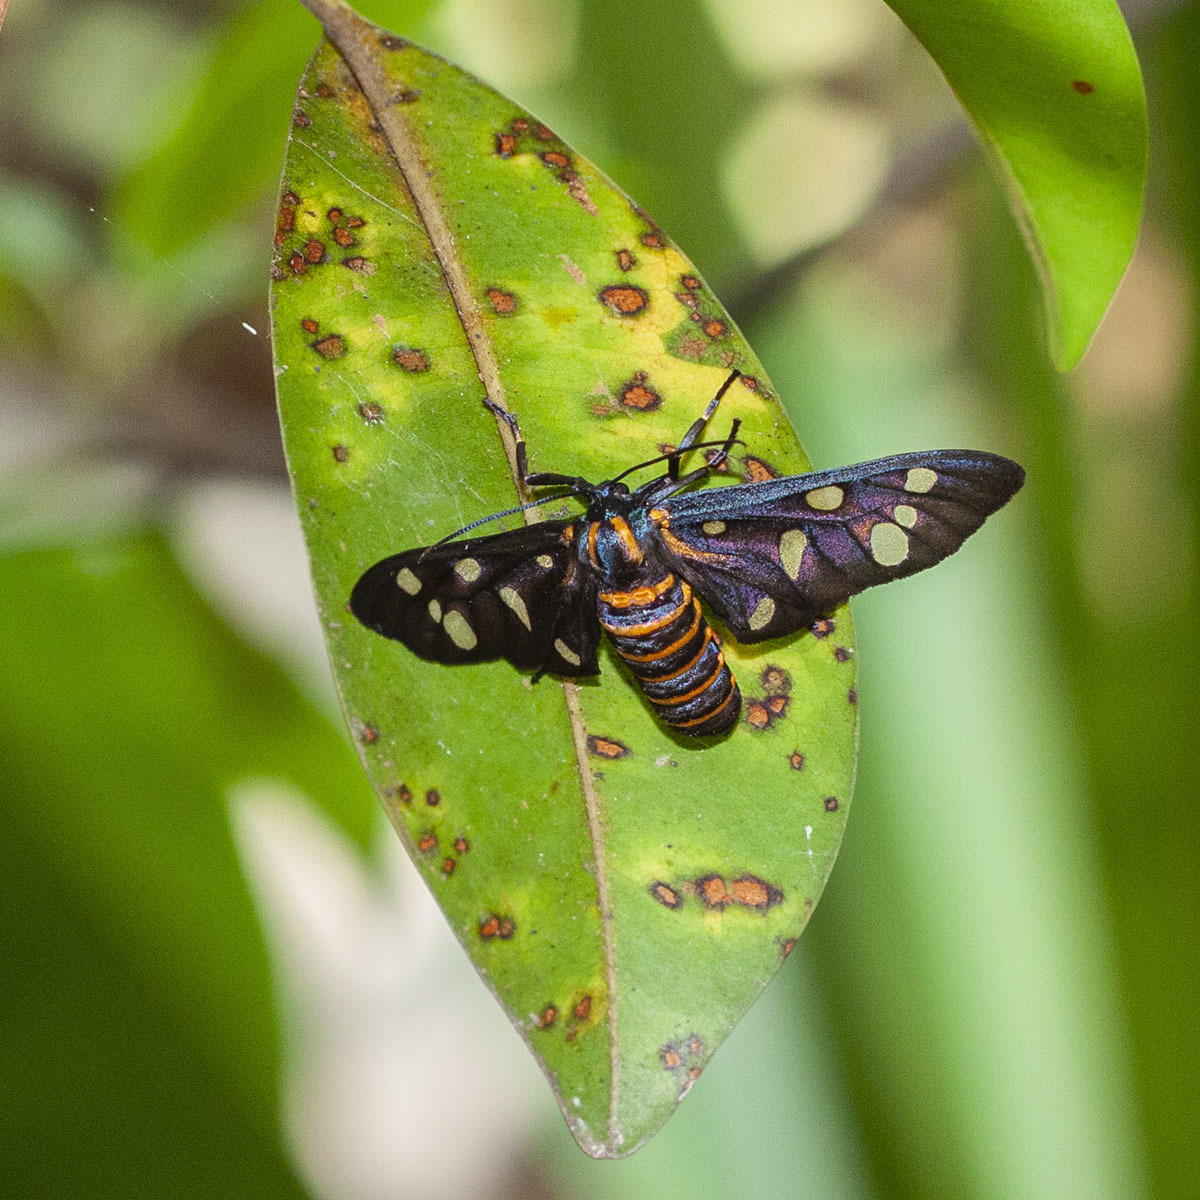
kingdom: Animalia
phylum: Arthropoda
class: Insecta
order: Lepidoptera
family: Erebidae
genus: Amata
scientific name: Amata passalis
